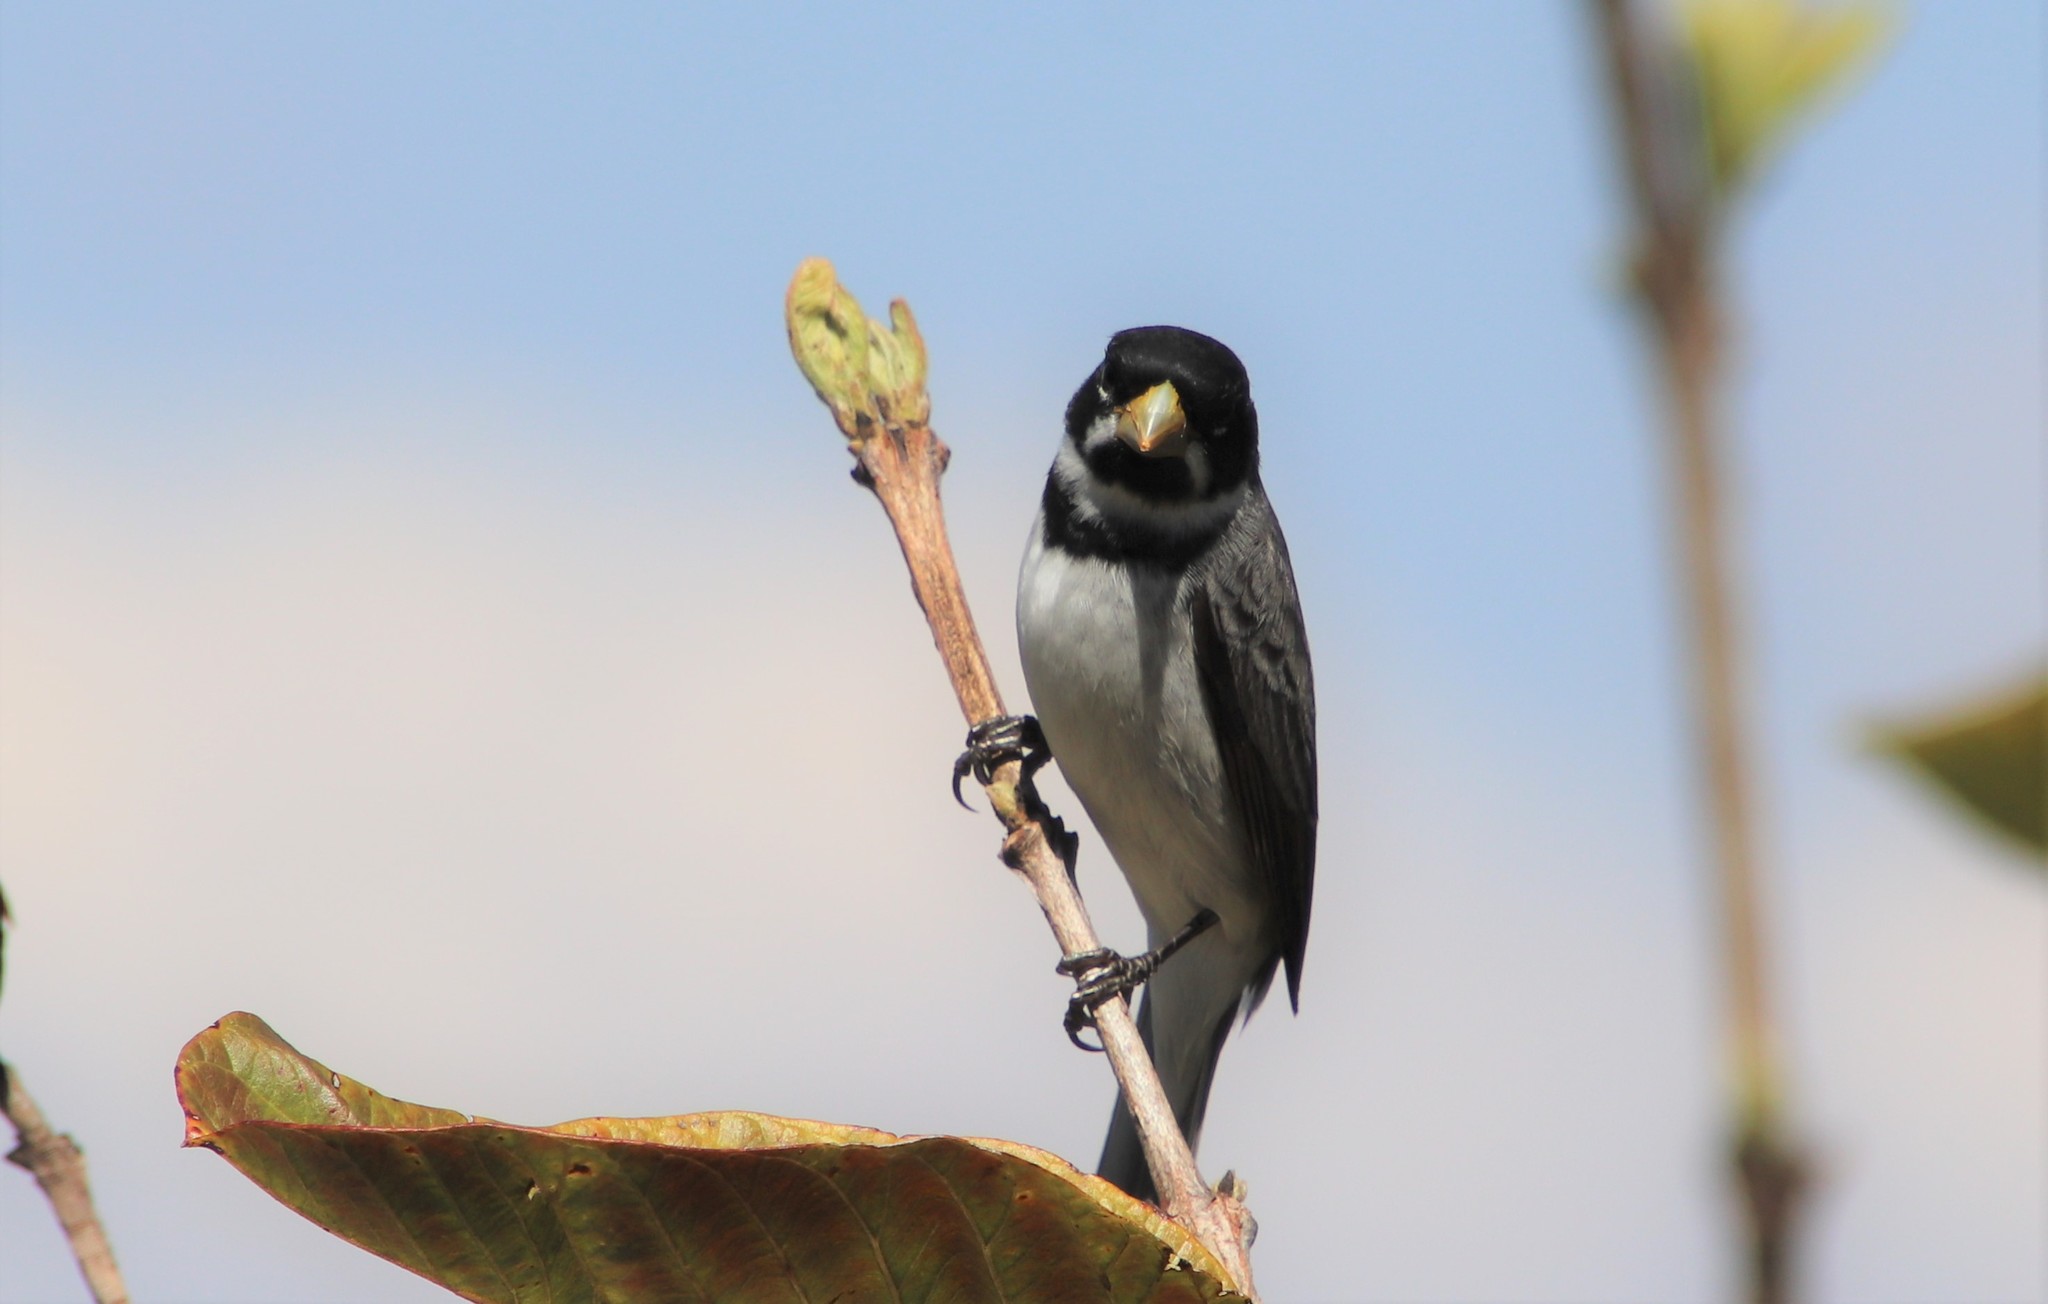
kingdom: Animalia
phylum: Chordata
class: Aves
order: Passeriformes
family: Thraupidae
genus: Sporophila
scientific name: Sporophila caerulescens
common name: Double-collared seedeater
